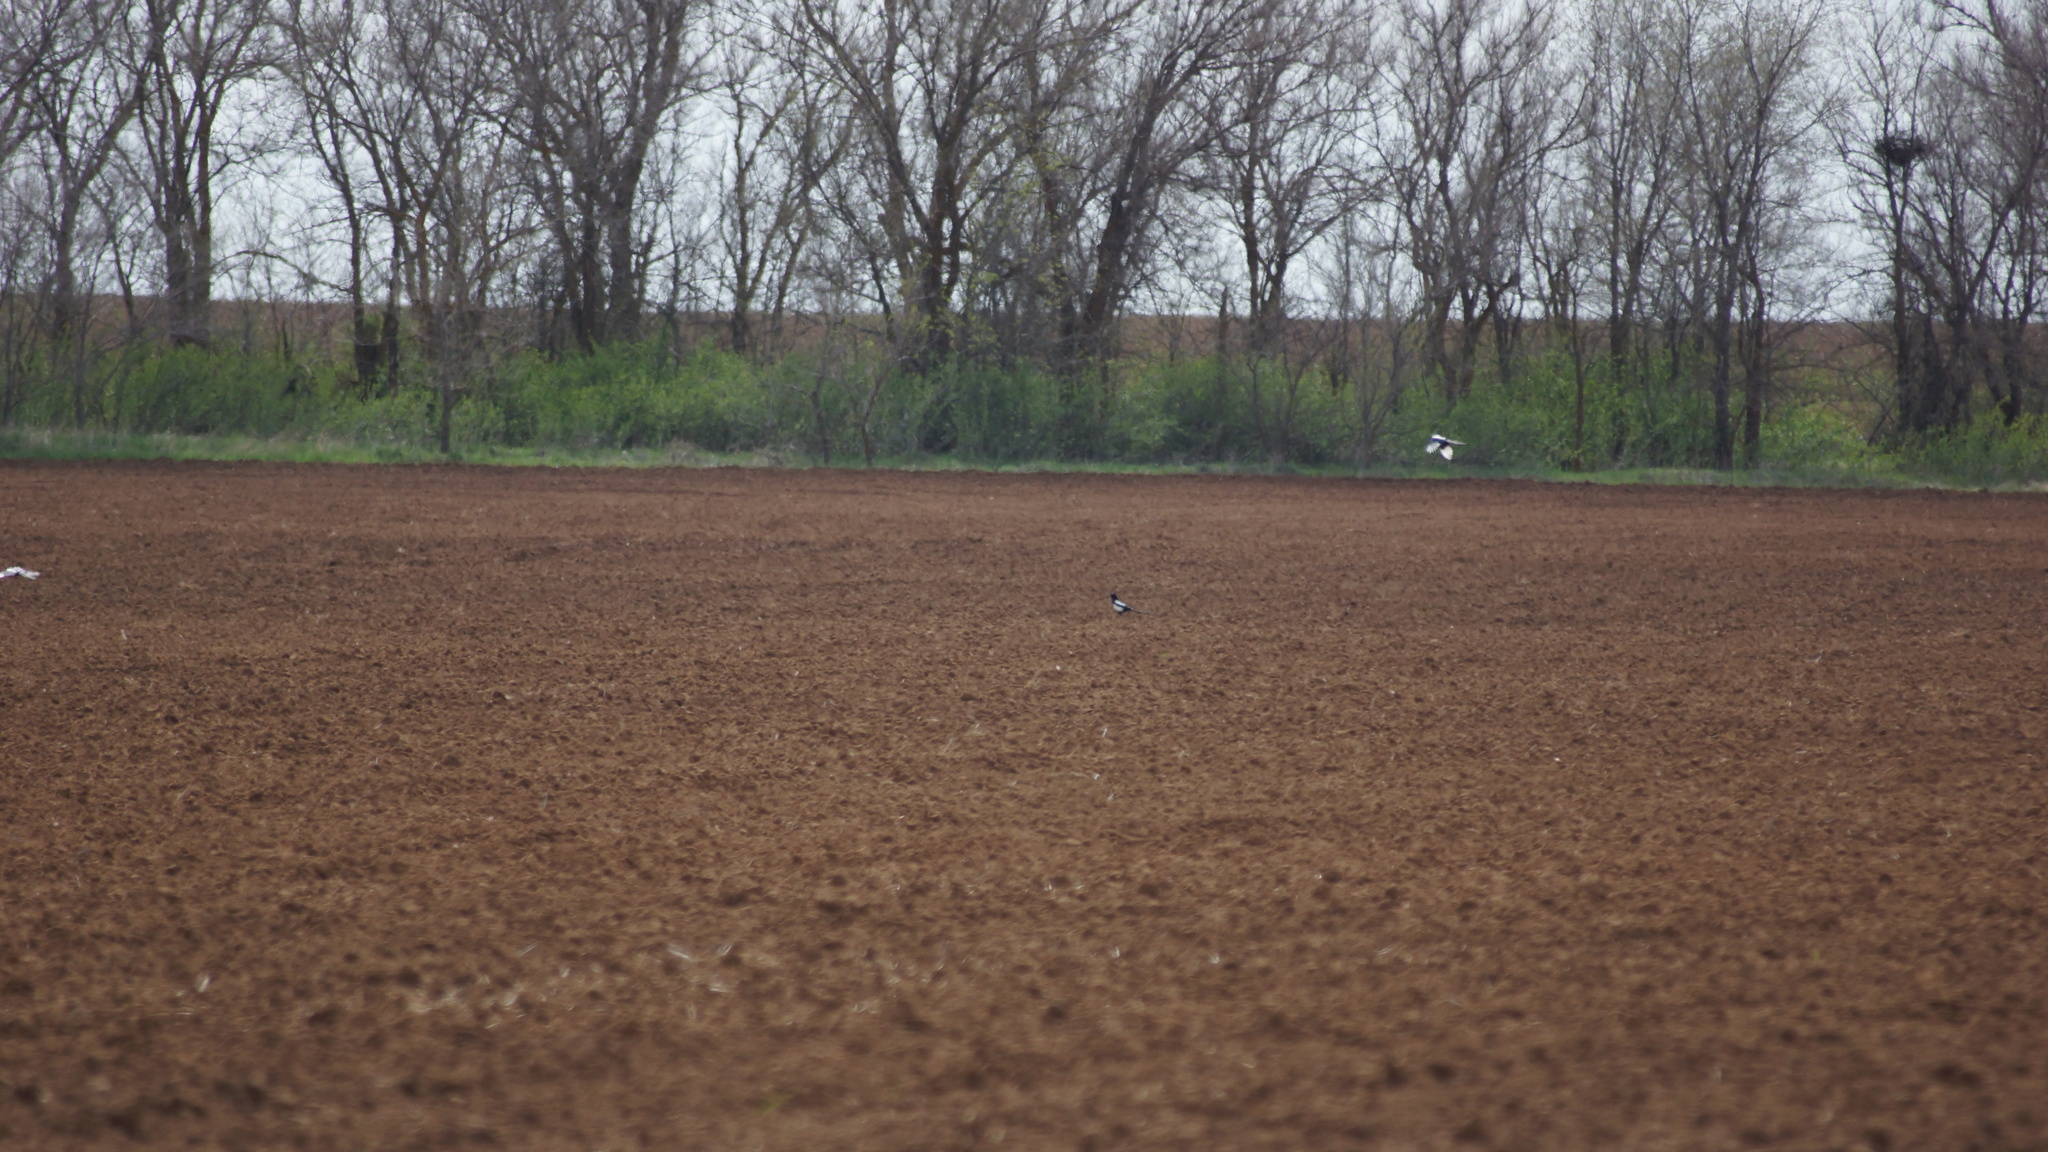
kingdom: Animalia
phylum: Chordata
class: Aves
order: Passeriformes
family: Corvidae
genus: Pica
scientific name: Pica pica
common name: Eurasian magpie
